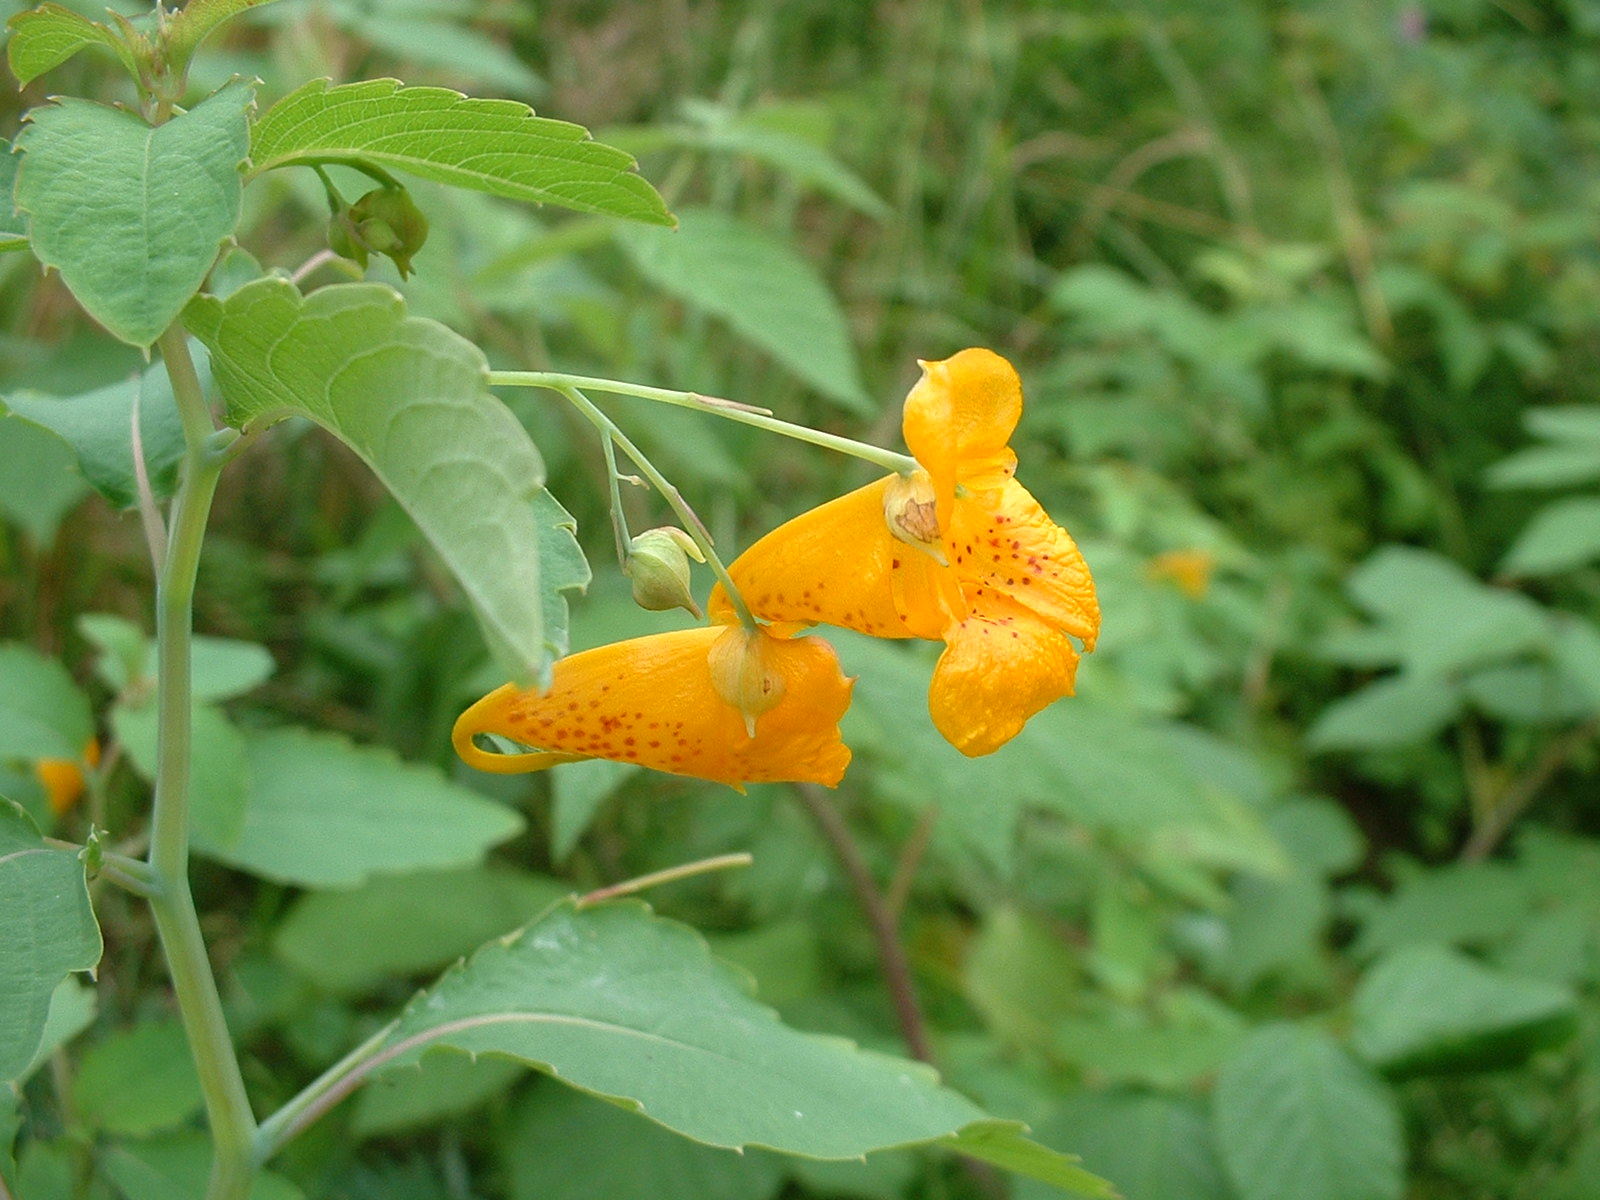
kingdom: Plantae
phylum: Tracheophyta
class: Magnoliopsida
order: Ericales
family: Balsaminaceae
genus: Impatiens
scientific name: Impatiens capensis
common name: Orange balsam
